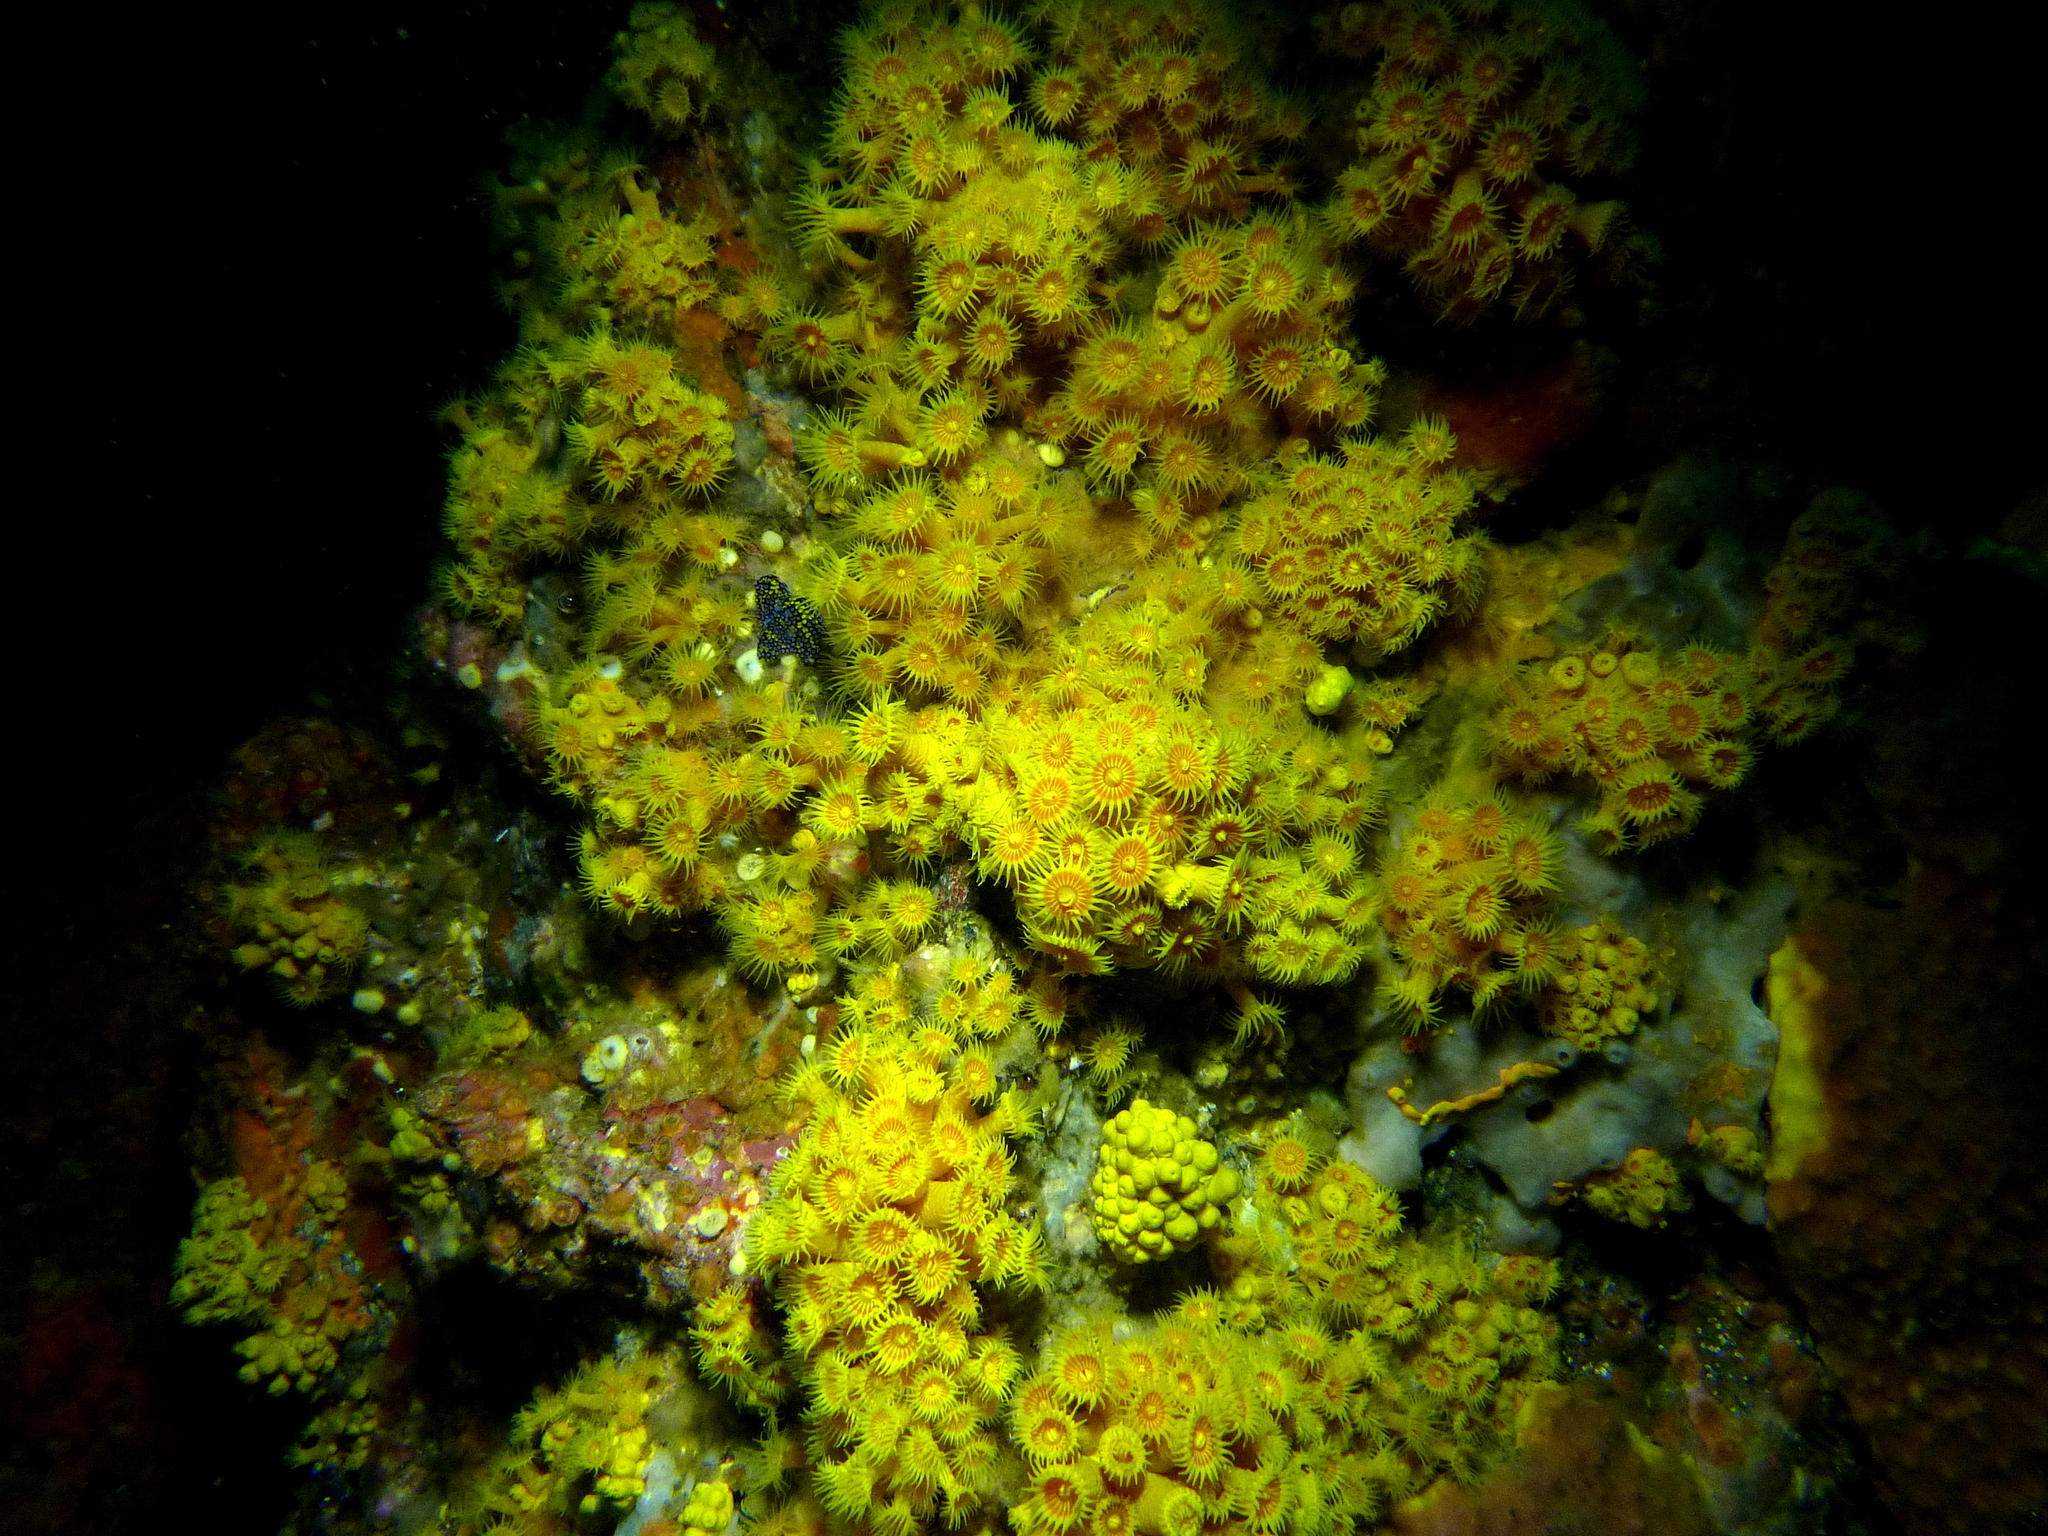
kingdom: Animalia
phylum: Cnidaria
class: Anthozoa
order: Zoantharia
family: Epizoanthidae
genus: Epizoanthus
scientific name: Epizoanthus karenae
